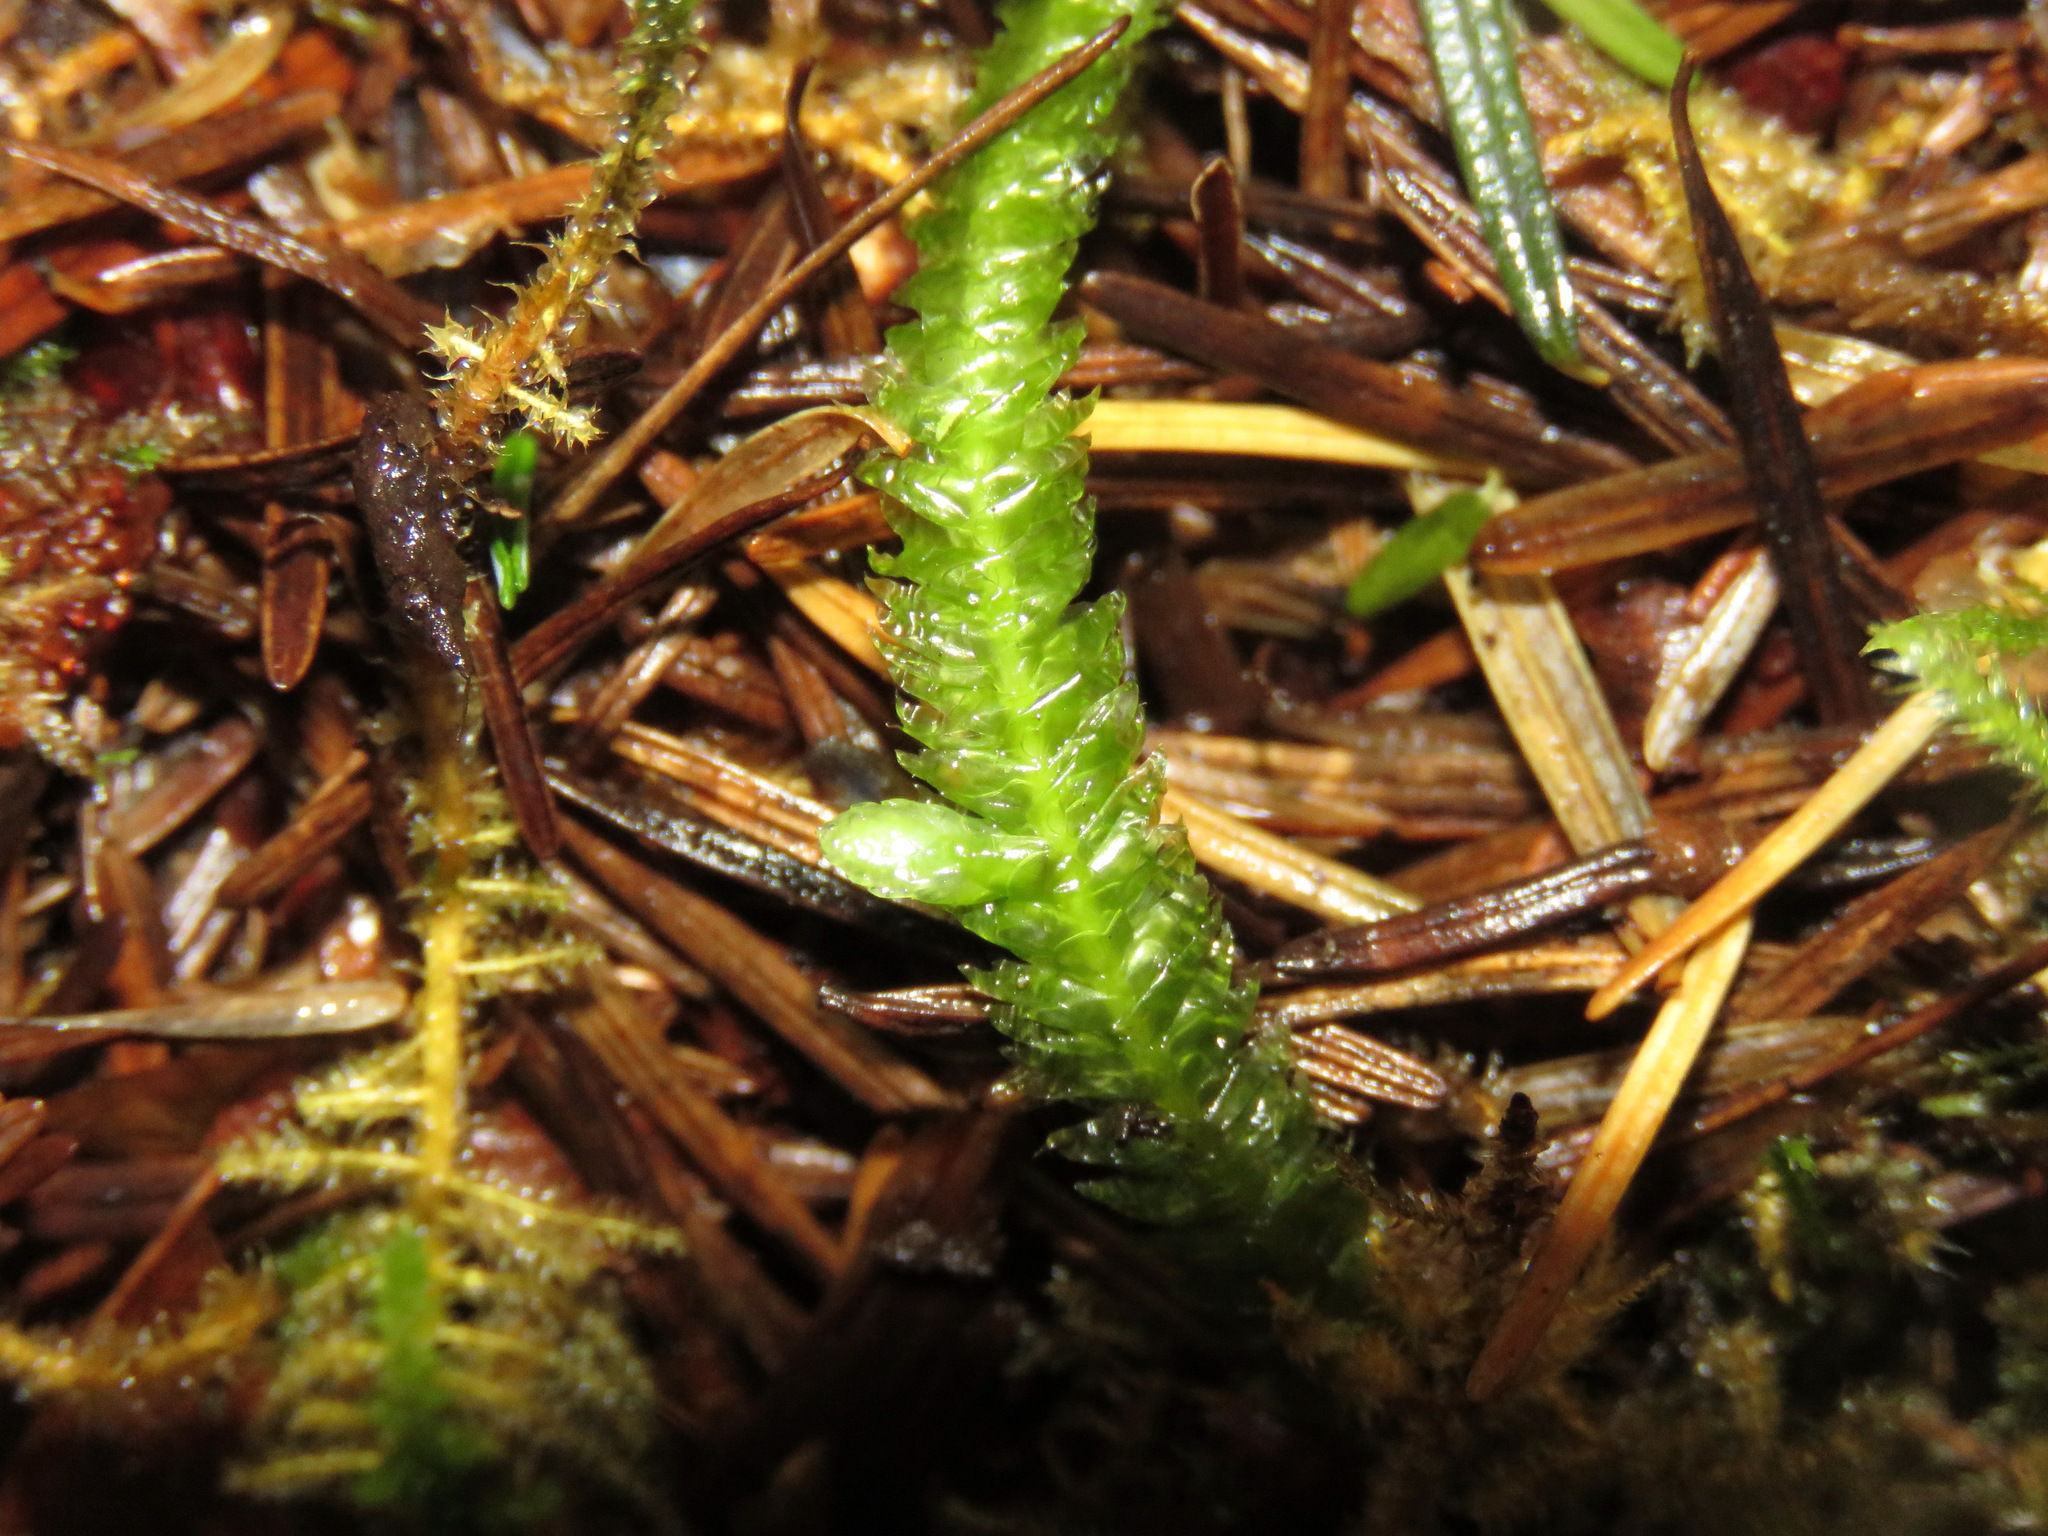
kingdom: Plantae
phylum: Bryophyta
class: Bryopsida
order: Hypnales
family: Plagiotheciaceae
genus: Plagiothecium
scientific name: Plagiothecium undulatum
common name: Waved silk-moss
